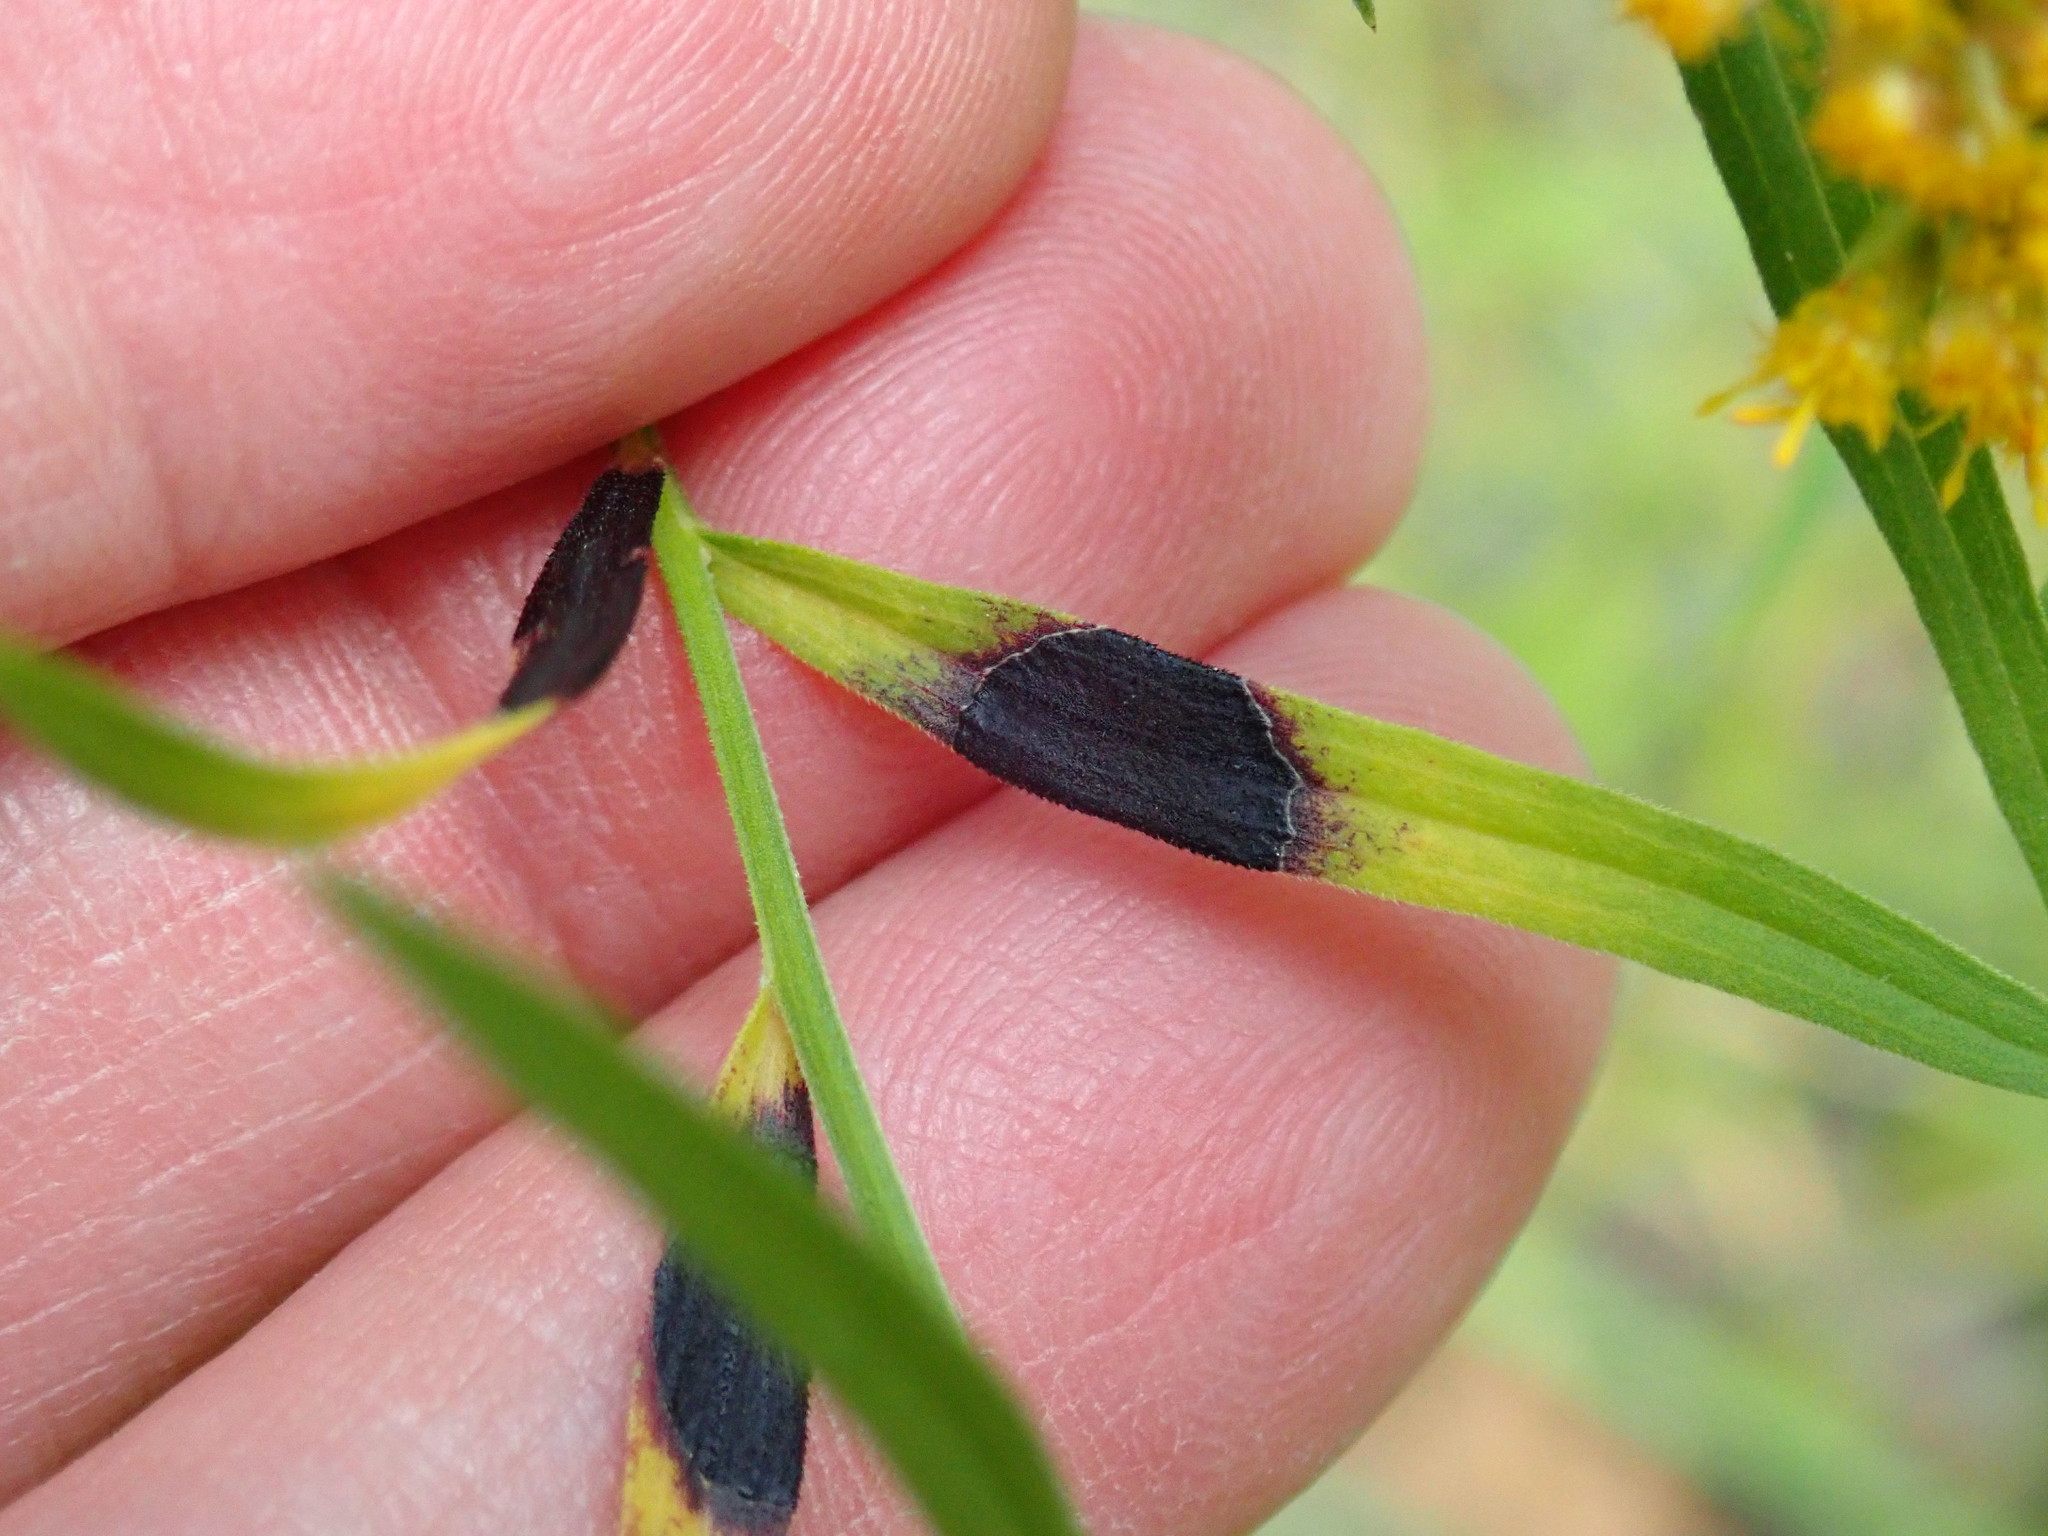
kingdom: Animalia
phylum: Arthropoda
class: Insecta
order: Diptera
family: Cecidomyiidae
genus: Asteromyia
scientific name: Asteromyia euthamiae
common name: Euthamia leaf gall midge
